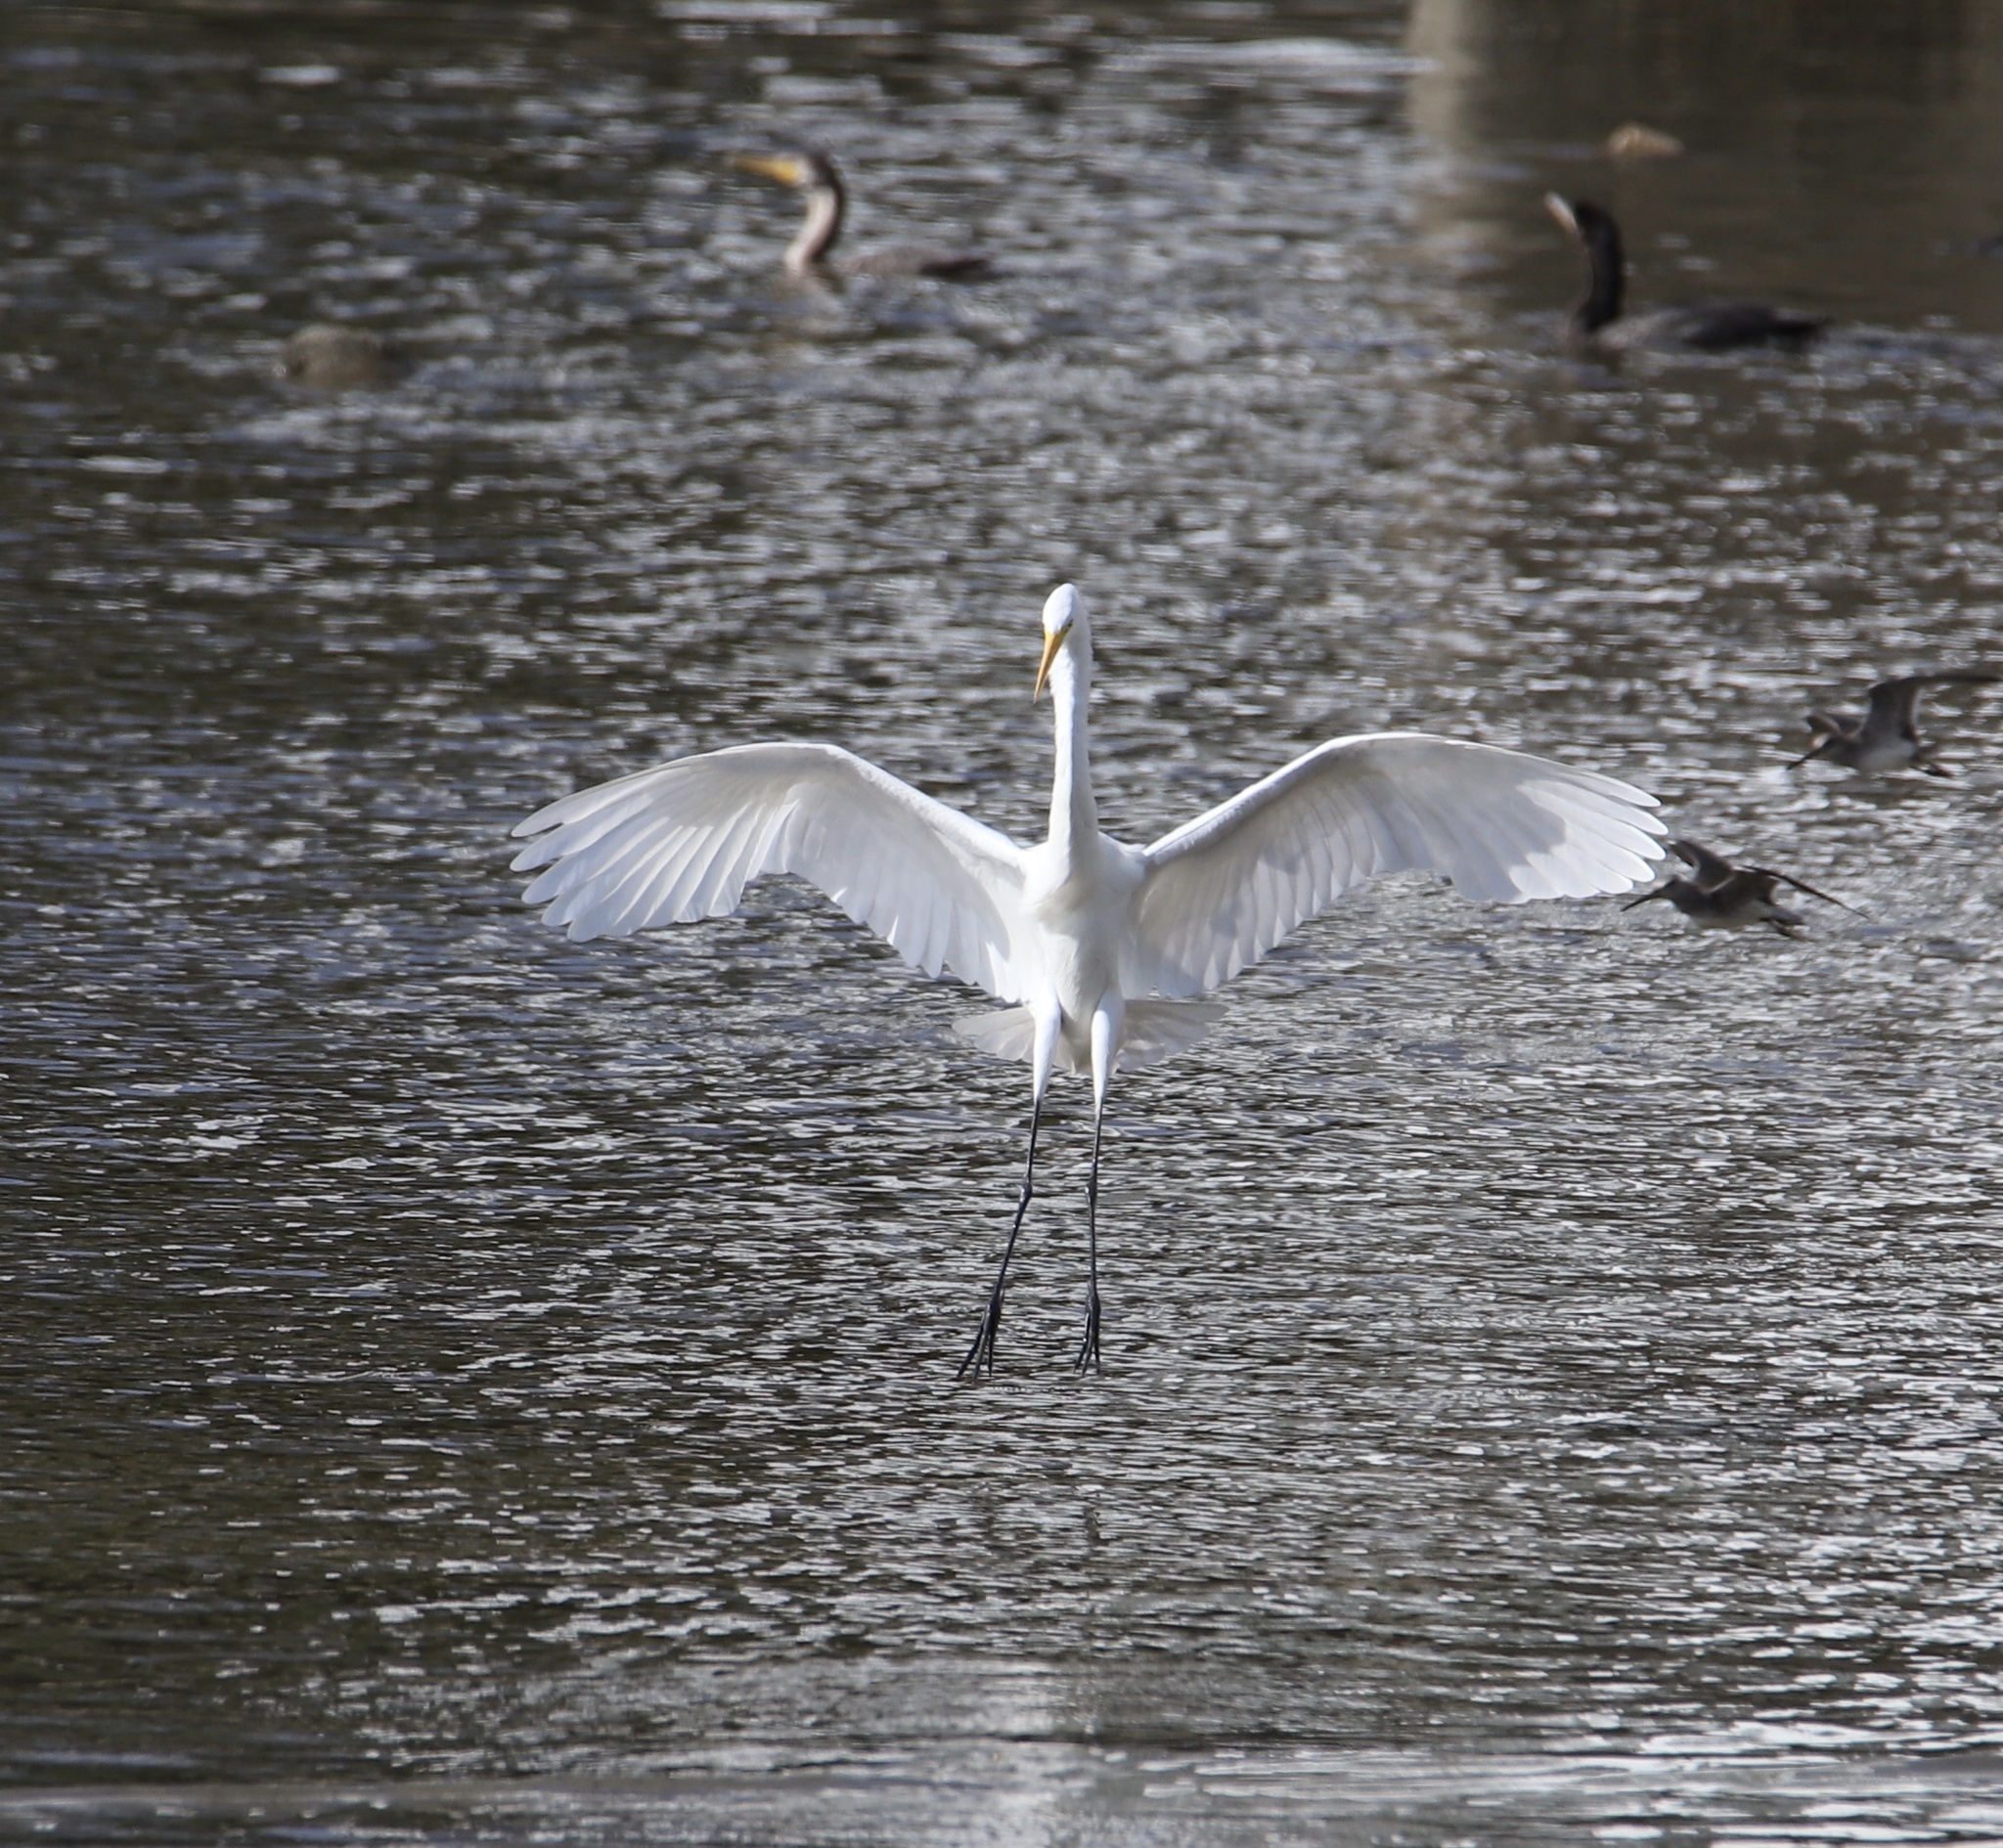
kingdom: Animalia
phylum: Chordata
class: Aves
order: Pelecaniformes
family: Ardeidae
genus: Ardea
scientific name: Ardea alba
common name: Great egret
